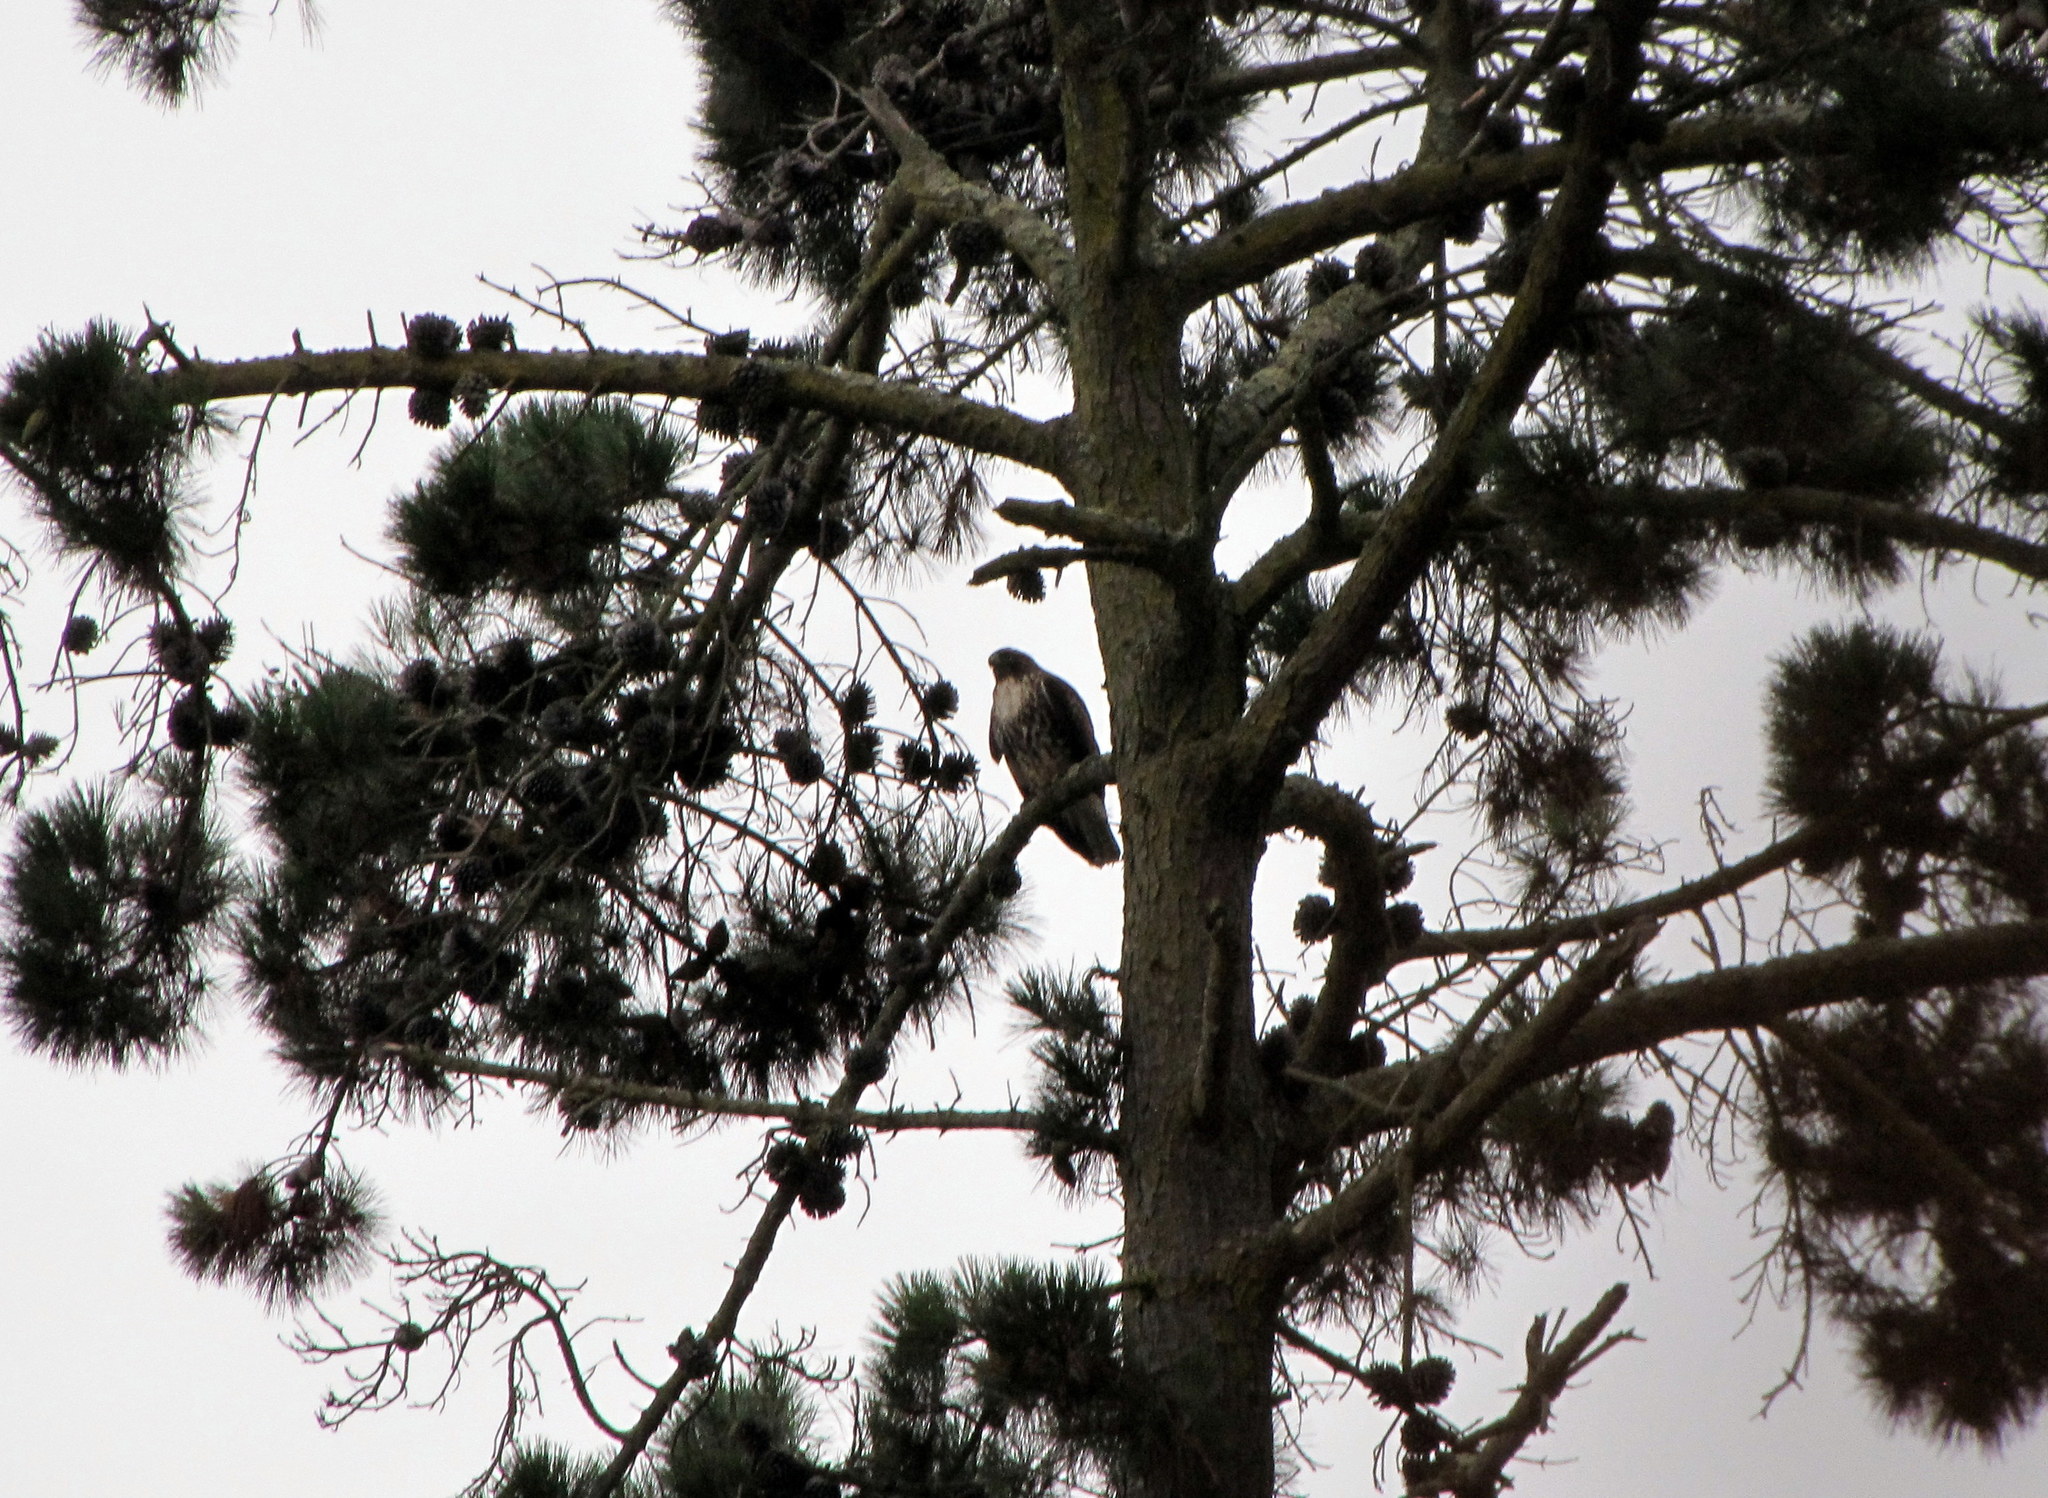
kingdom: Animalia
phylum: Chordata
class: Aves
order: Accipitriformes
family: Accipitridae
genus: Buteo
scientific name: Buteo jamaicensis
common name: Red-tailed hawk
